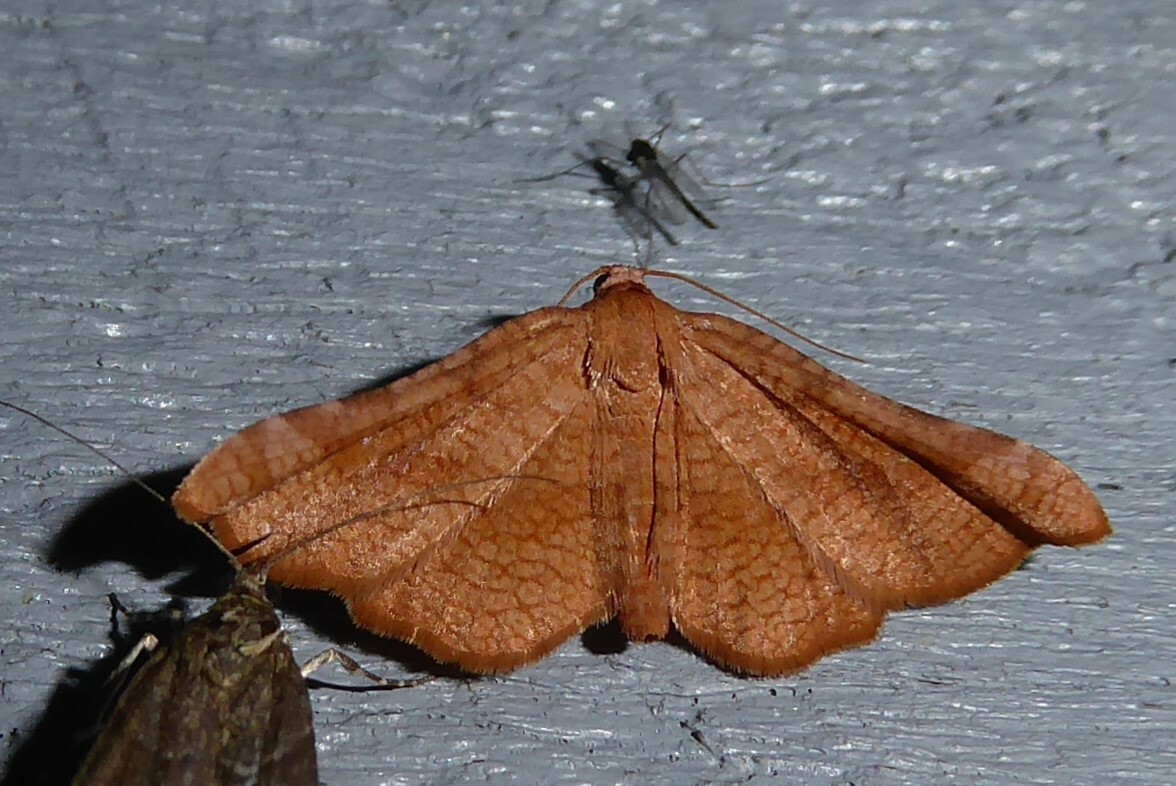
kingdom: Animalia
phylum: Arthropoda
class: Insecta
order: Lepidoptera
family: Thyrididae
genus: Morova
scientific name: Morova subfasciata
